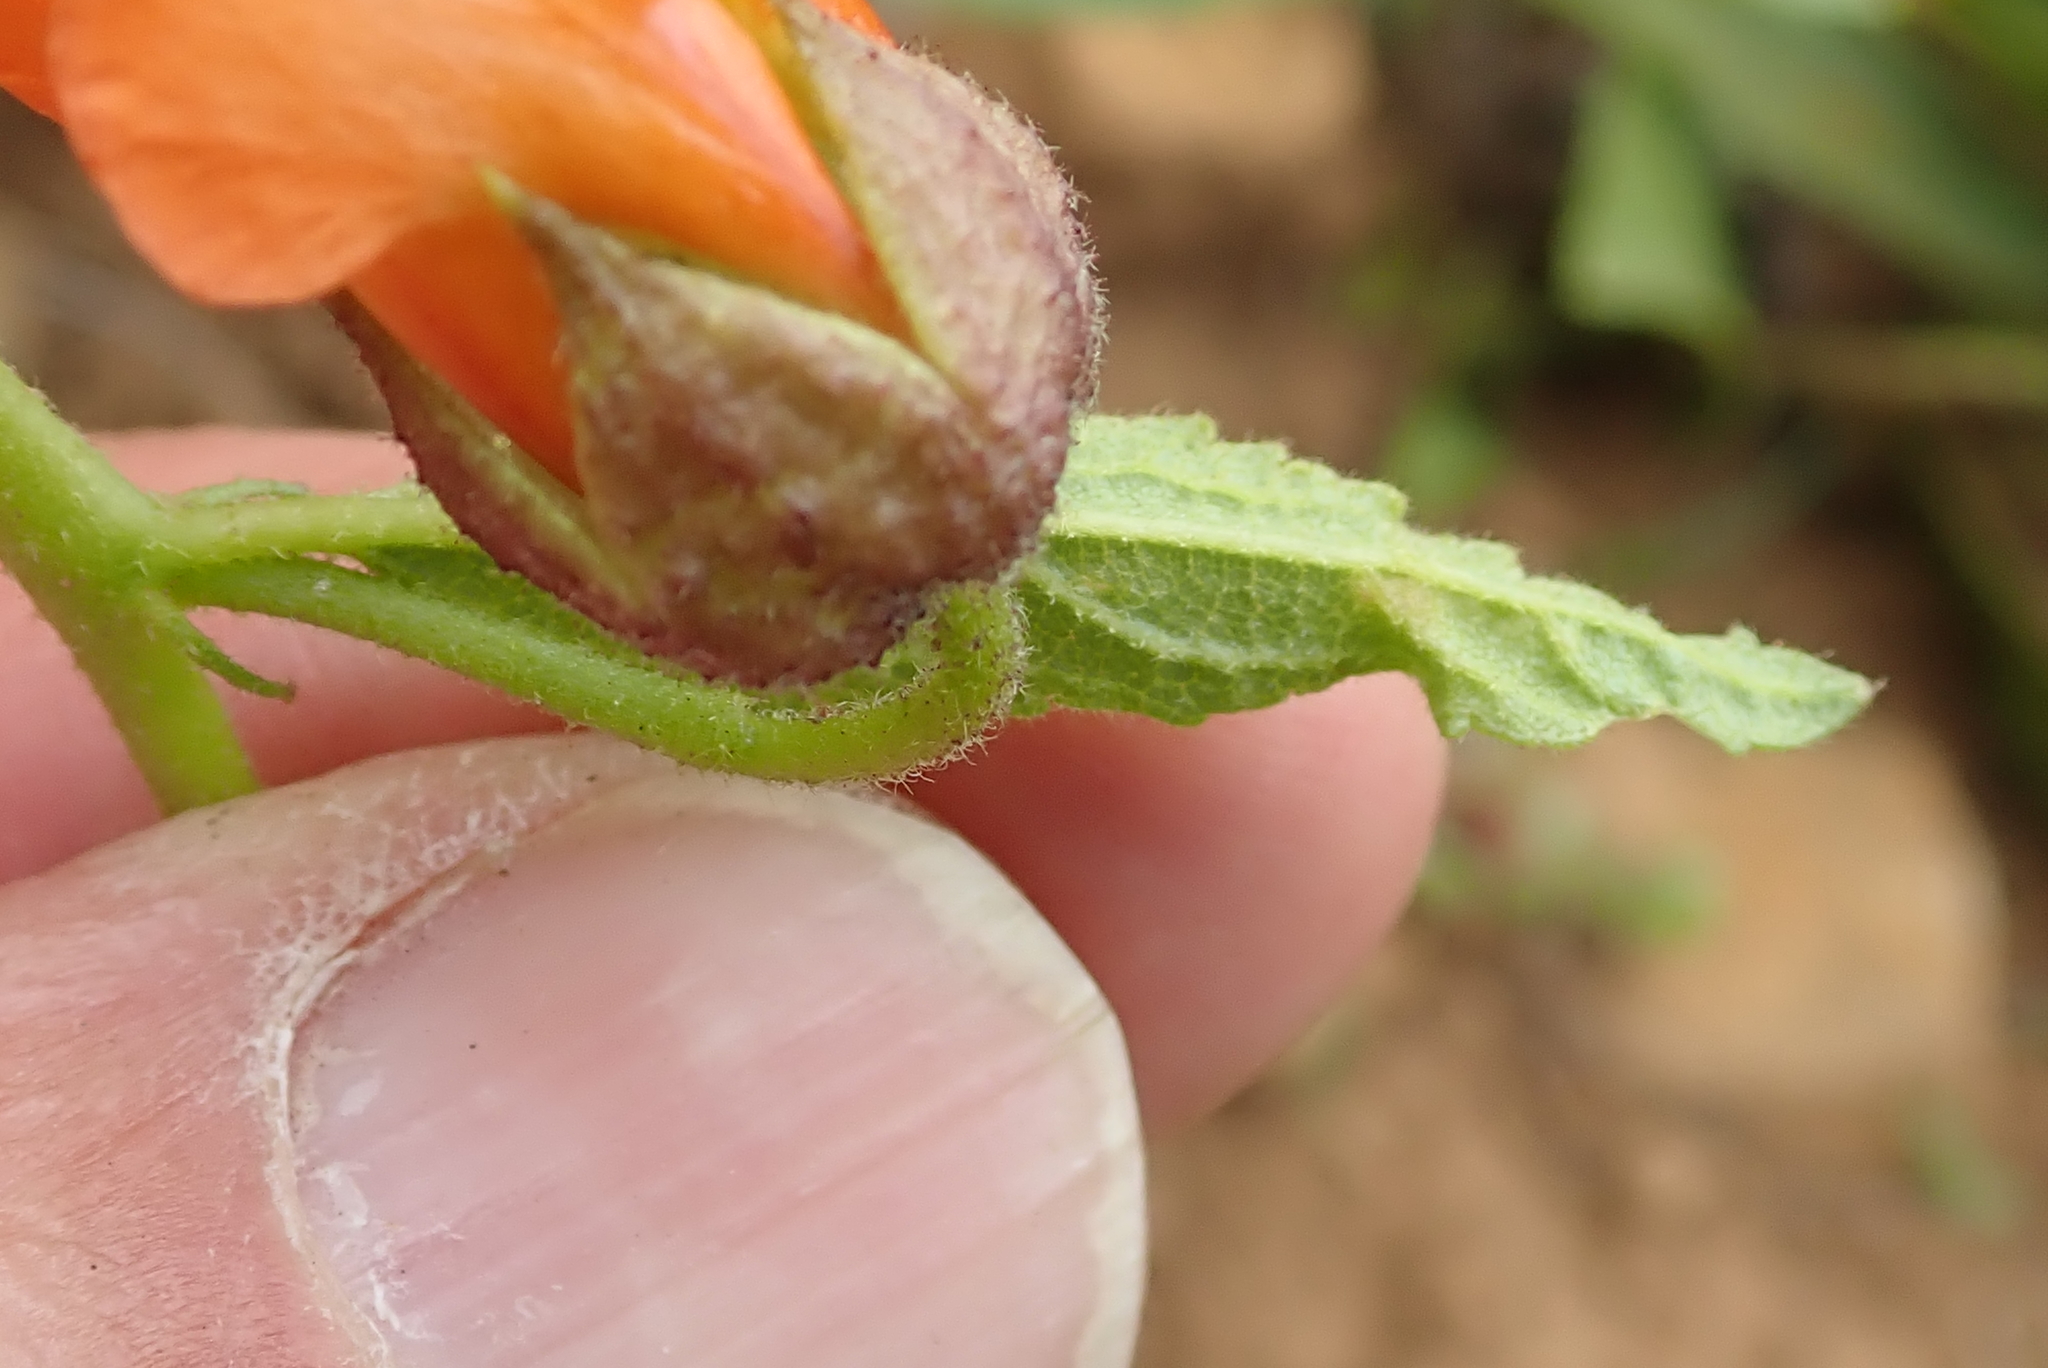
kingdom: Plantae
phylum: Tracheophyta
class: Magnoliopsida
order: Malvales
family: Malvaceae
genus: Hermannia
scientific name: Hermannia cristata
